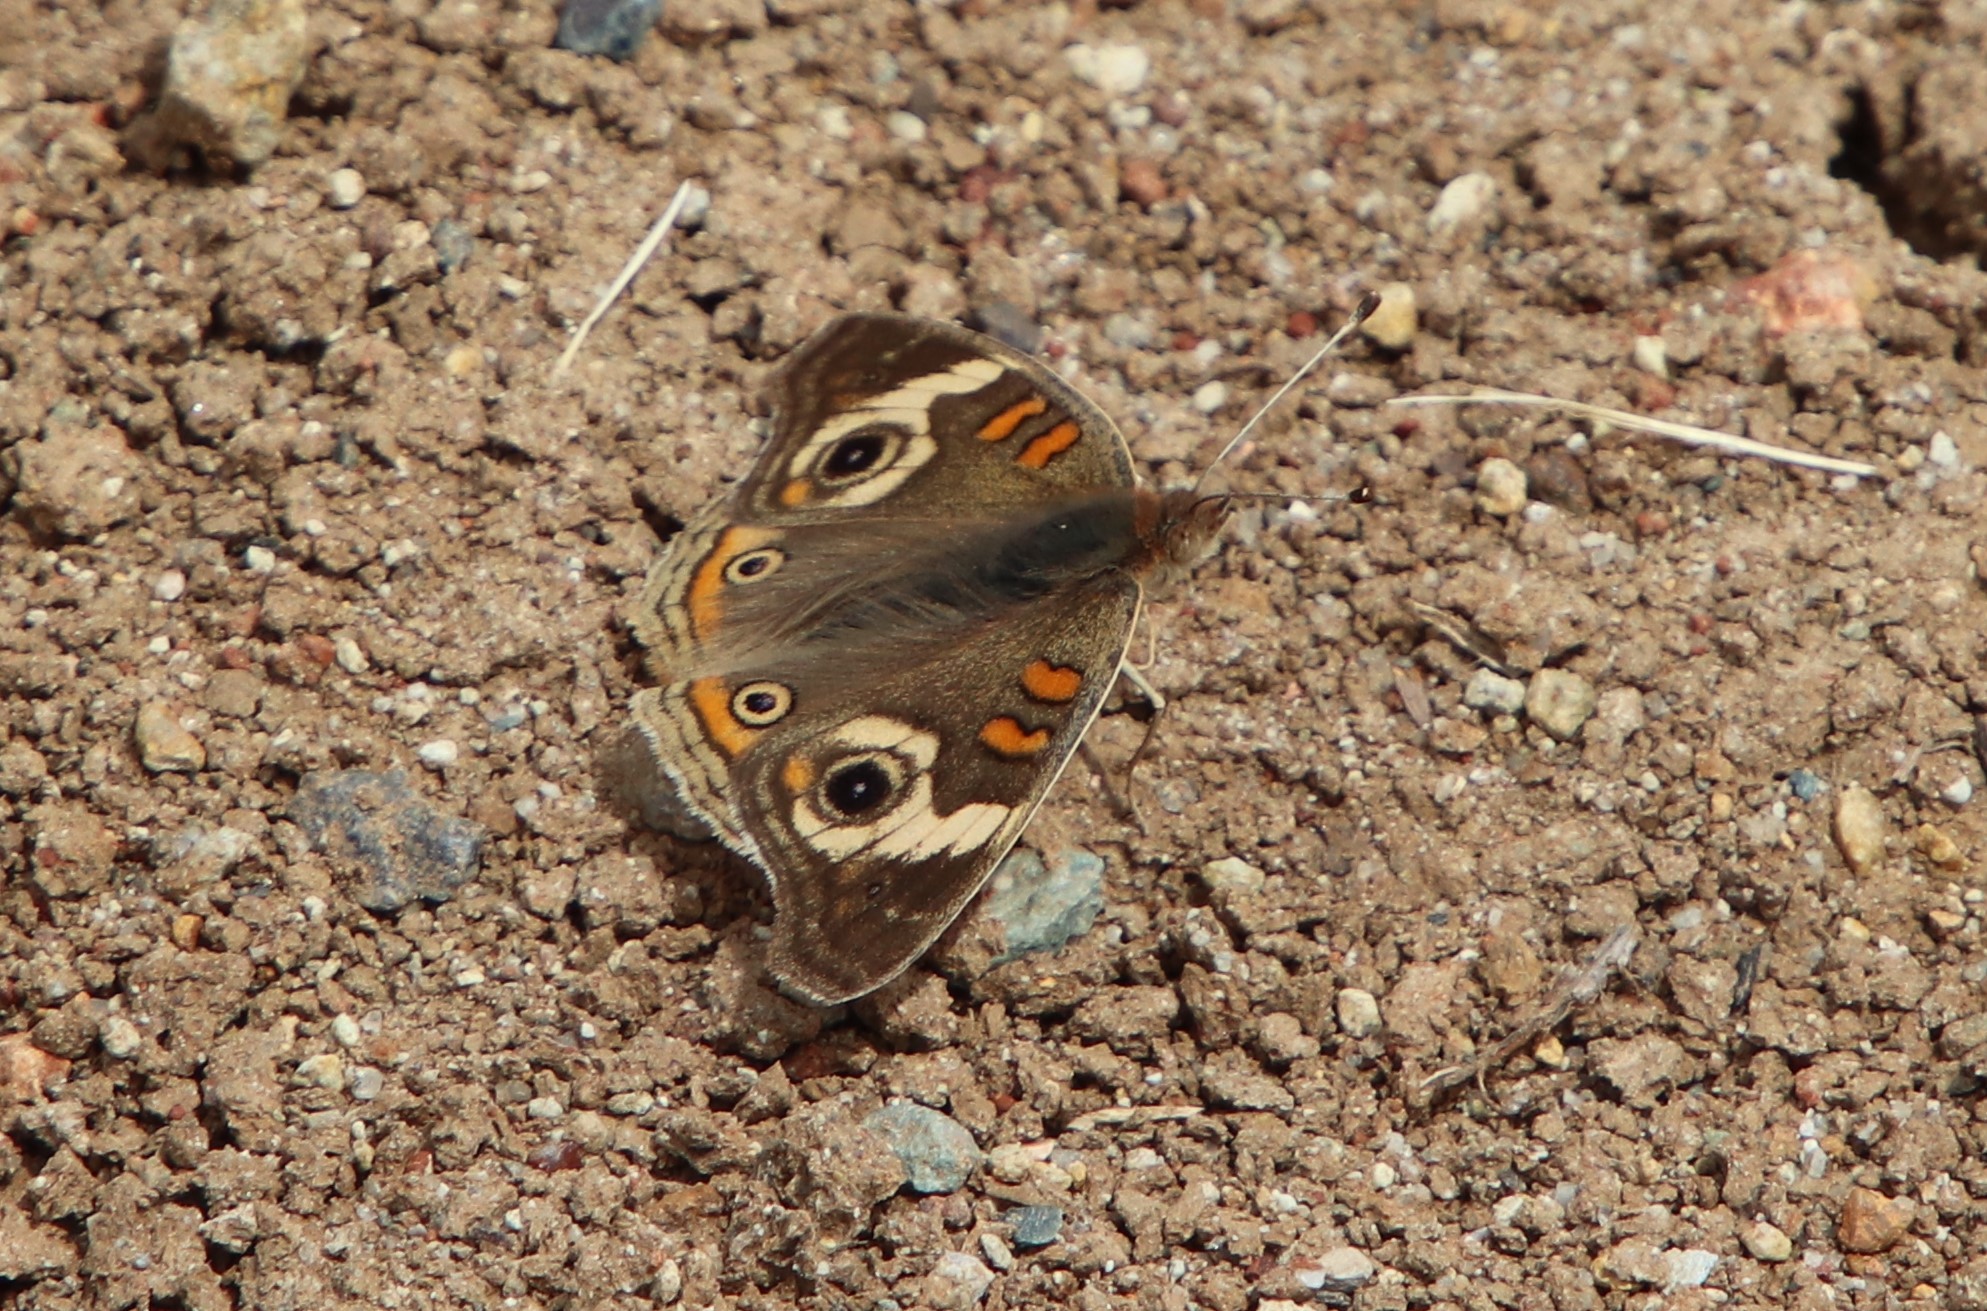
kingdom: Animalia
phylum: Arthropoda
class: Insecta
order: Lepidoptera
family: Nymphalidae
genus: Junonia
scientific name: Junonia grisea
